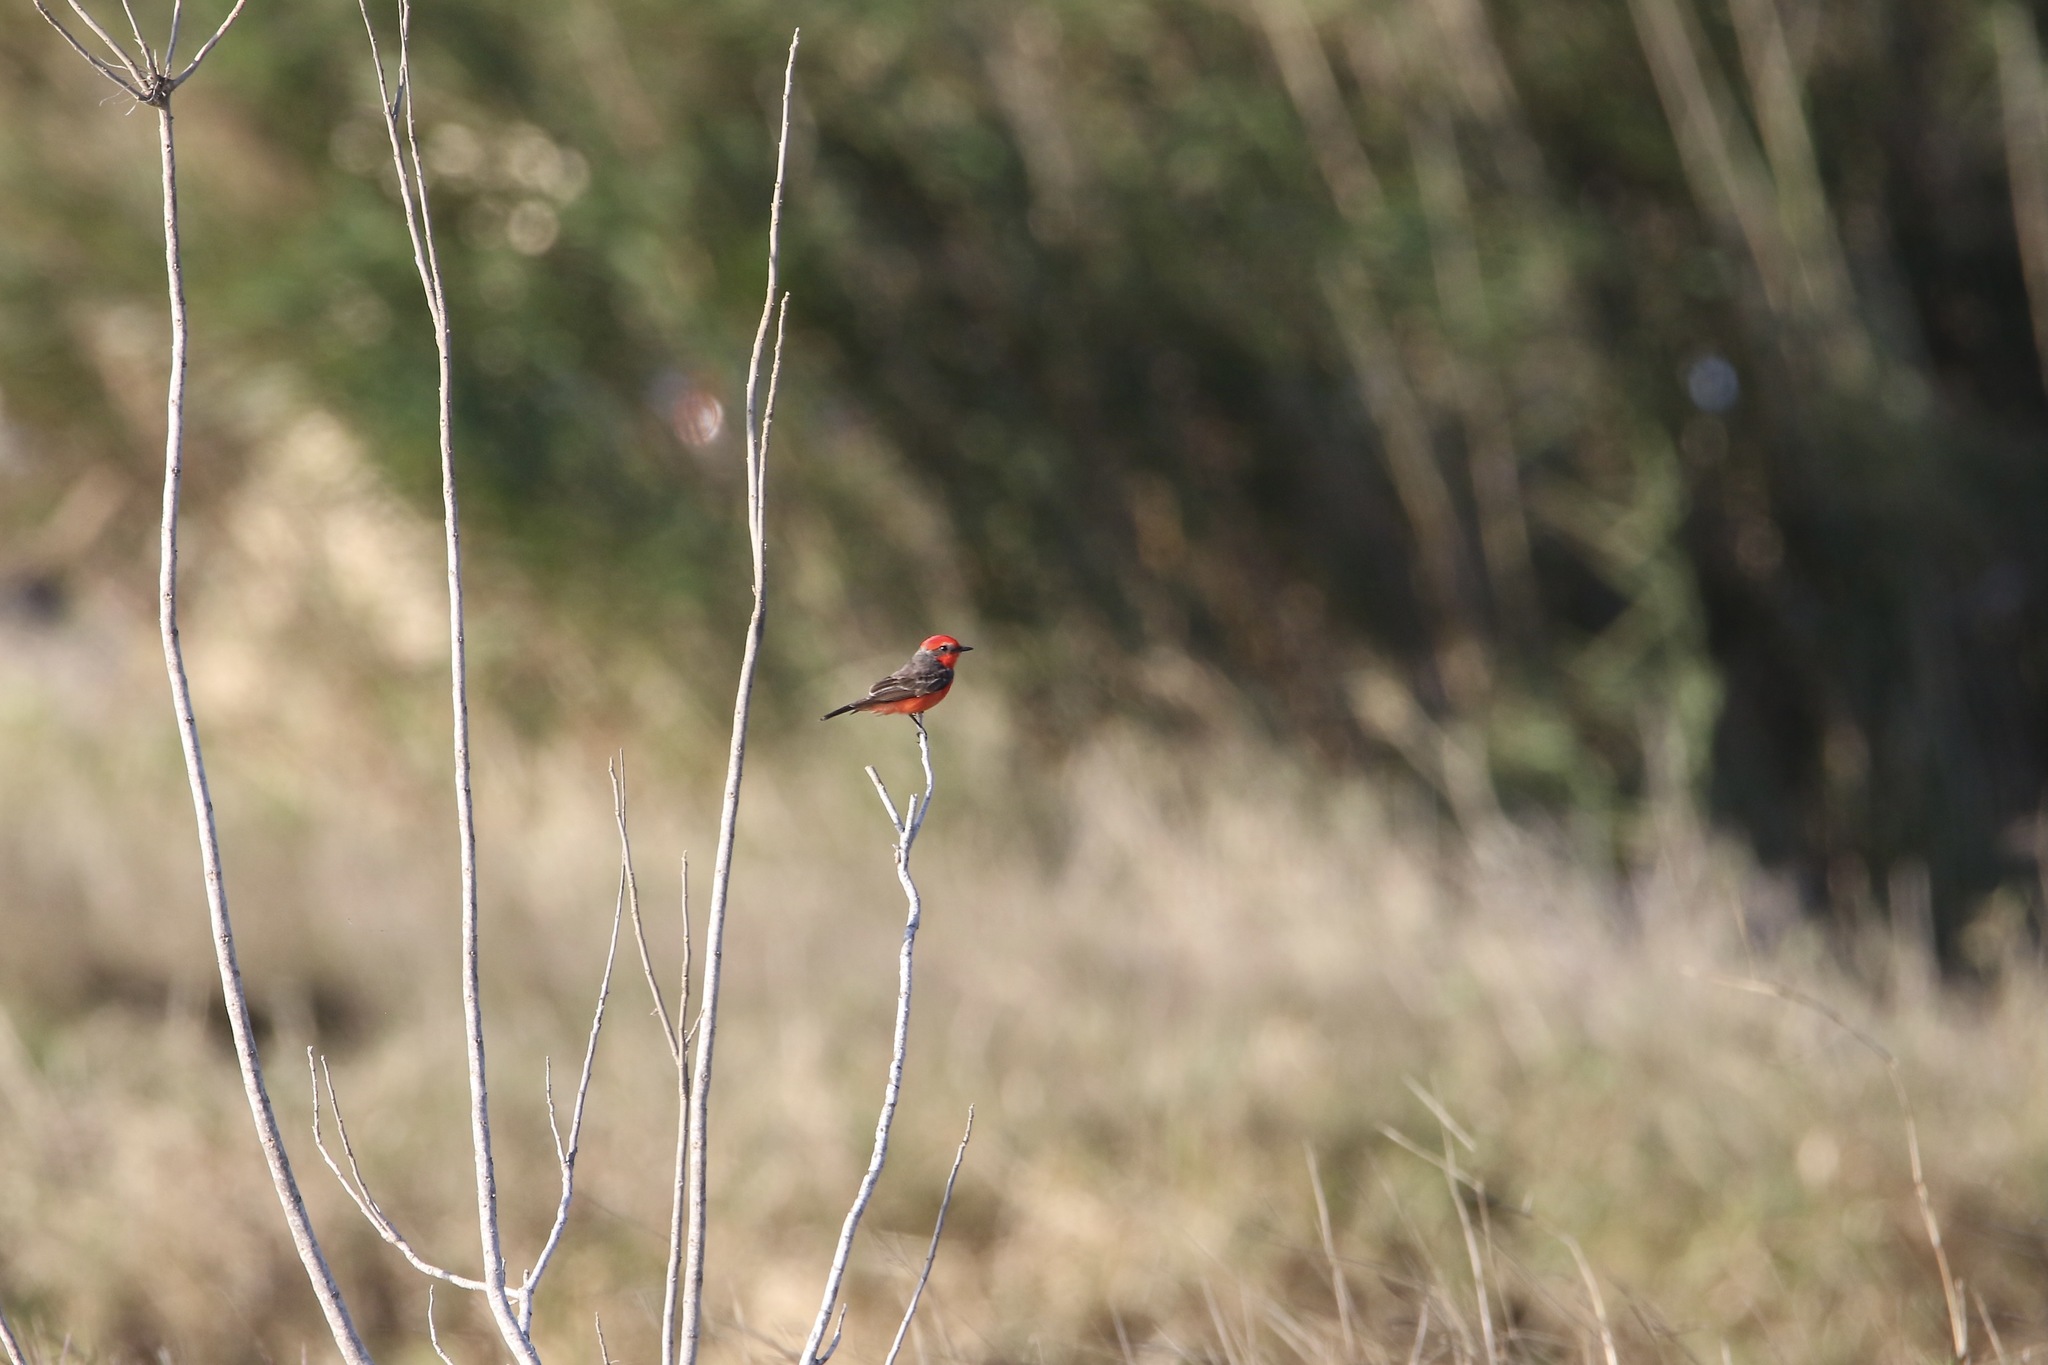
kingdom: Animalia
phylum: Chordata
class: Aves
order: Passeriformes
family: Tyrannidae
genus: Pyrocephalus
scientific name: Pyrocephalus rubinus
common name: Vermilion flycatcher
